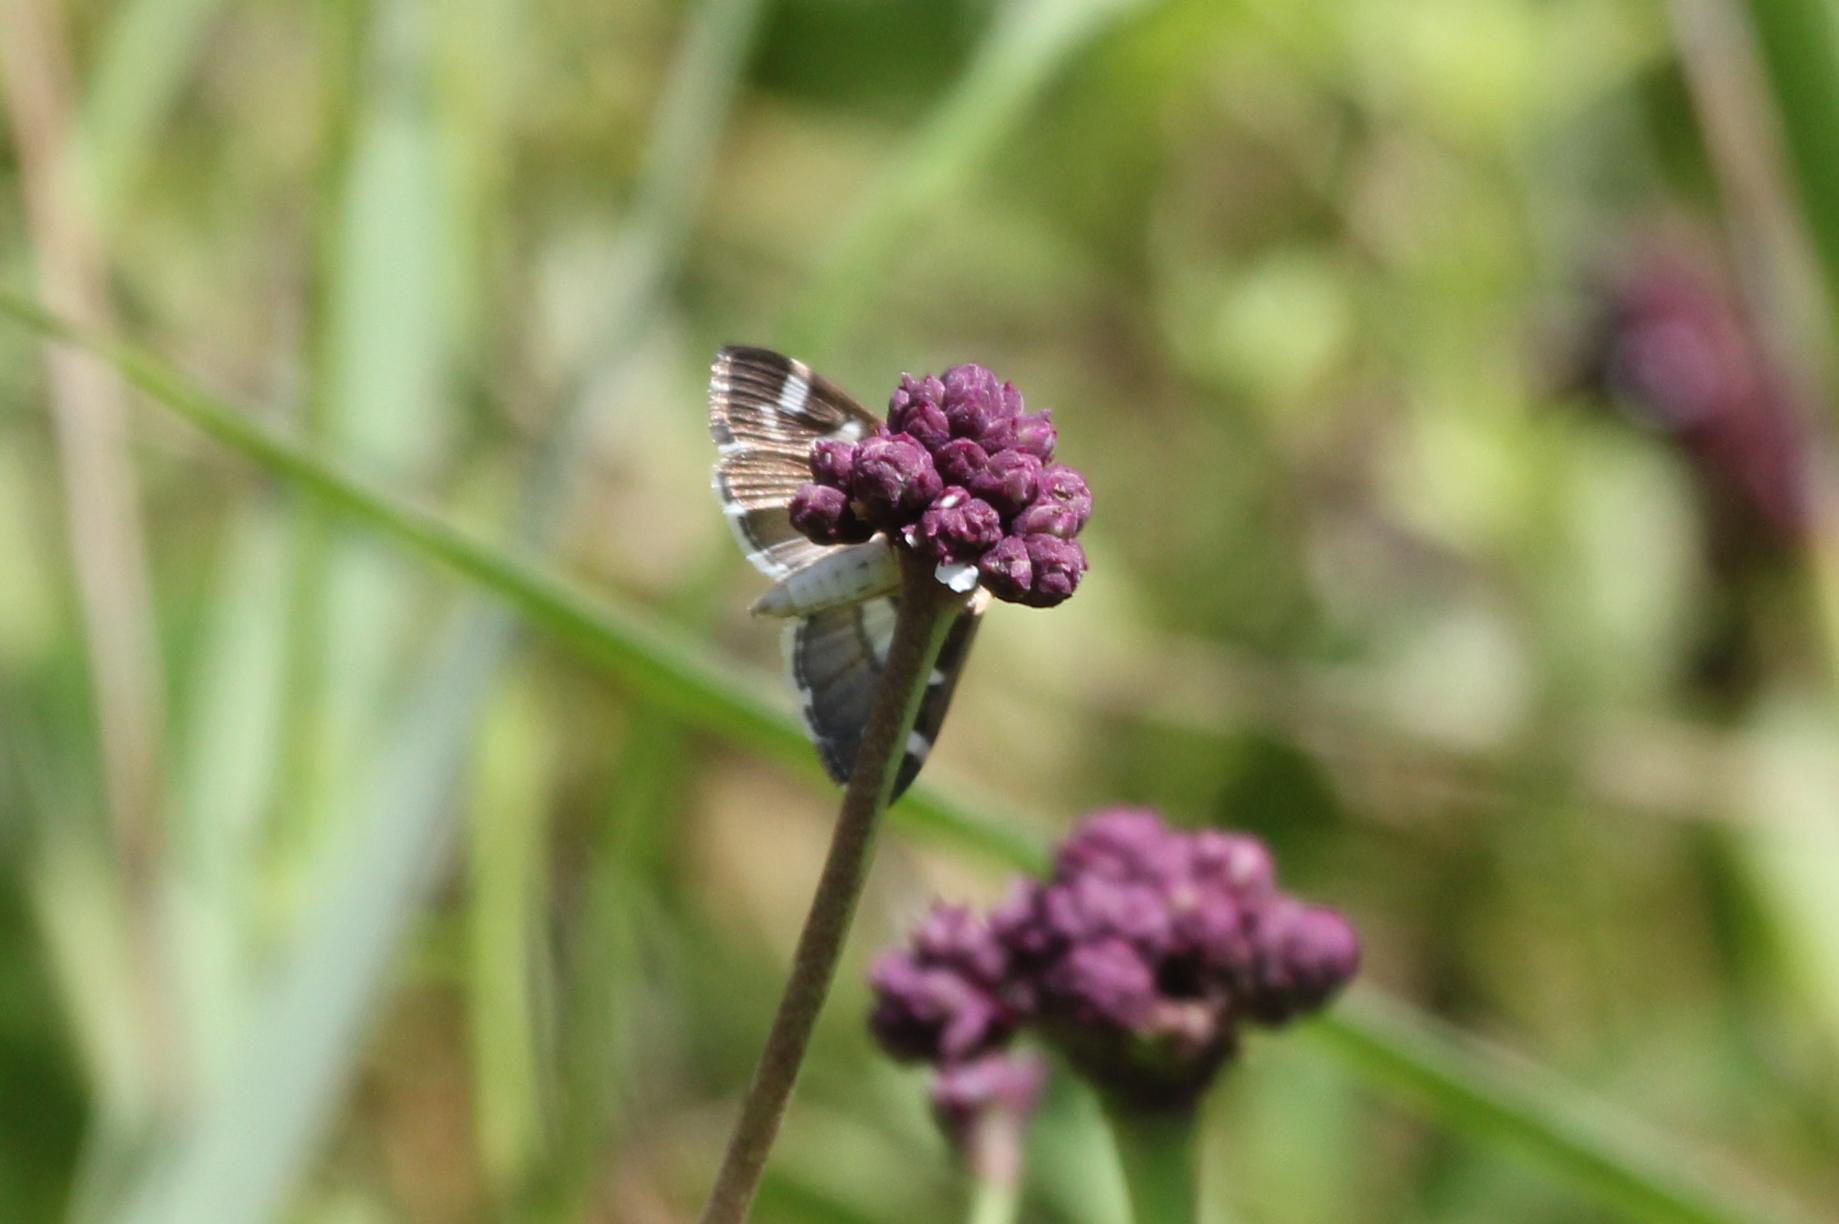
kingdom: Animalia
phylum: Arthropoda
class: Insecta
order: Lepidoptera
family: Crambidae
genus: Spoladea
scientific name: Spoladea recurvalis
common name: Beet webworm moth
